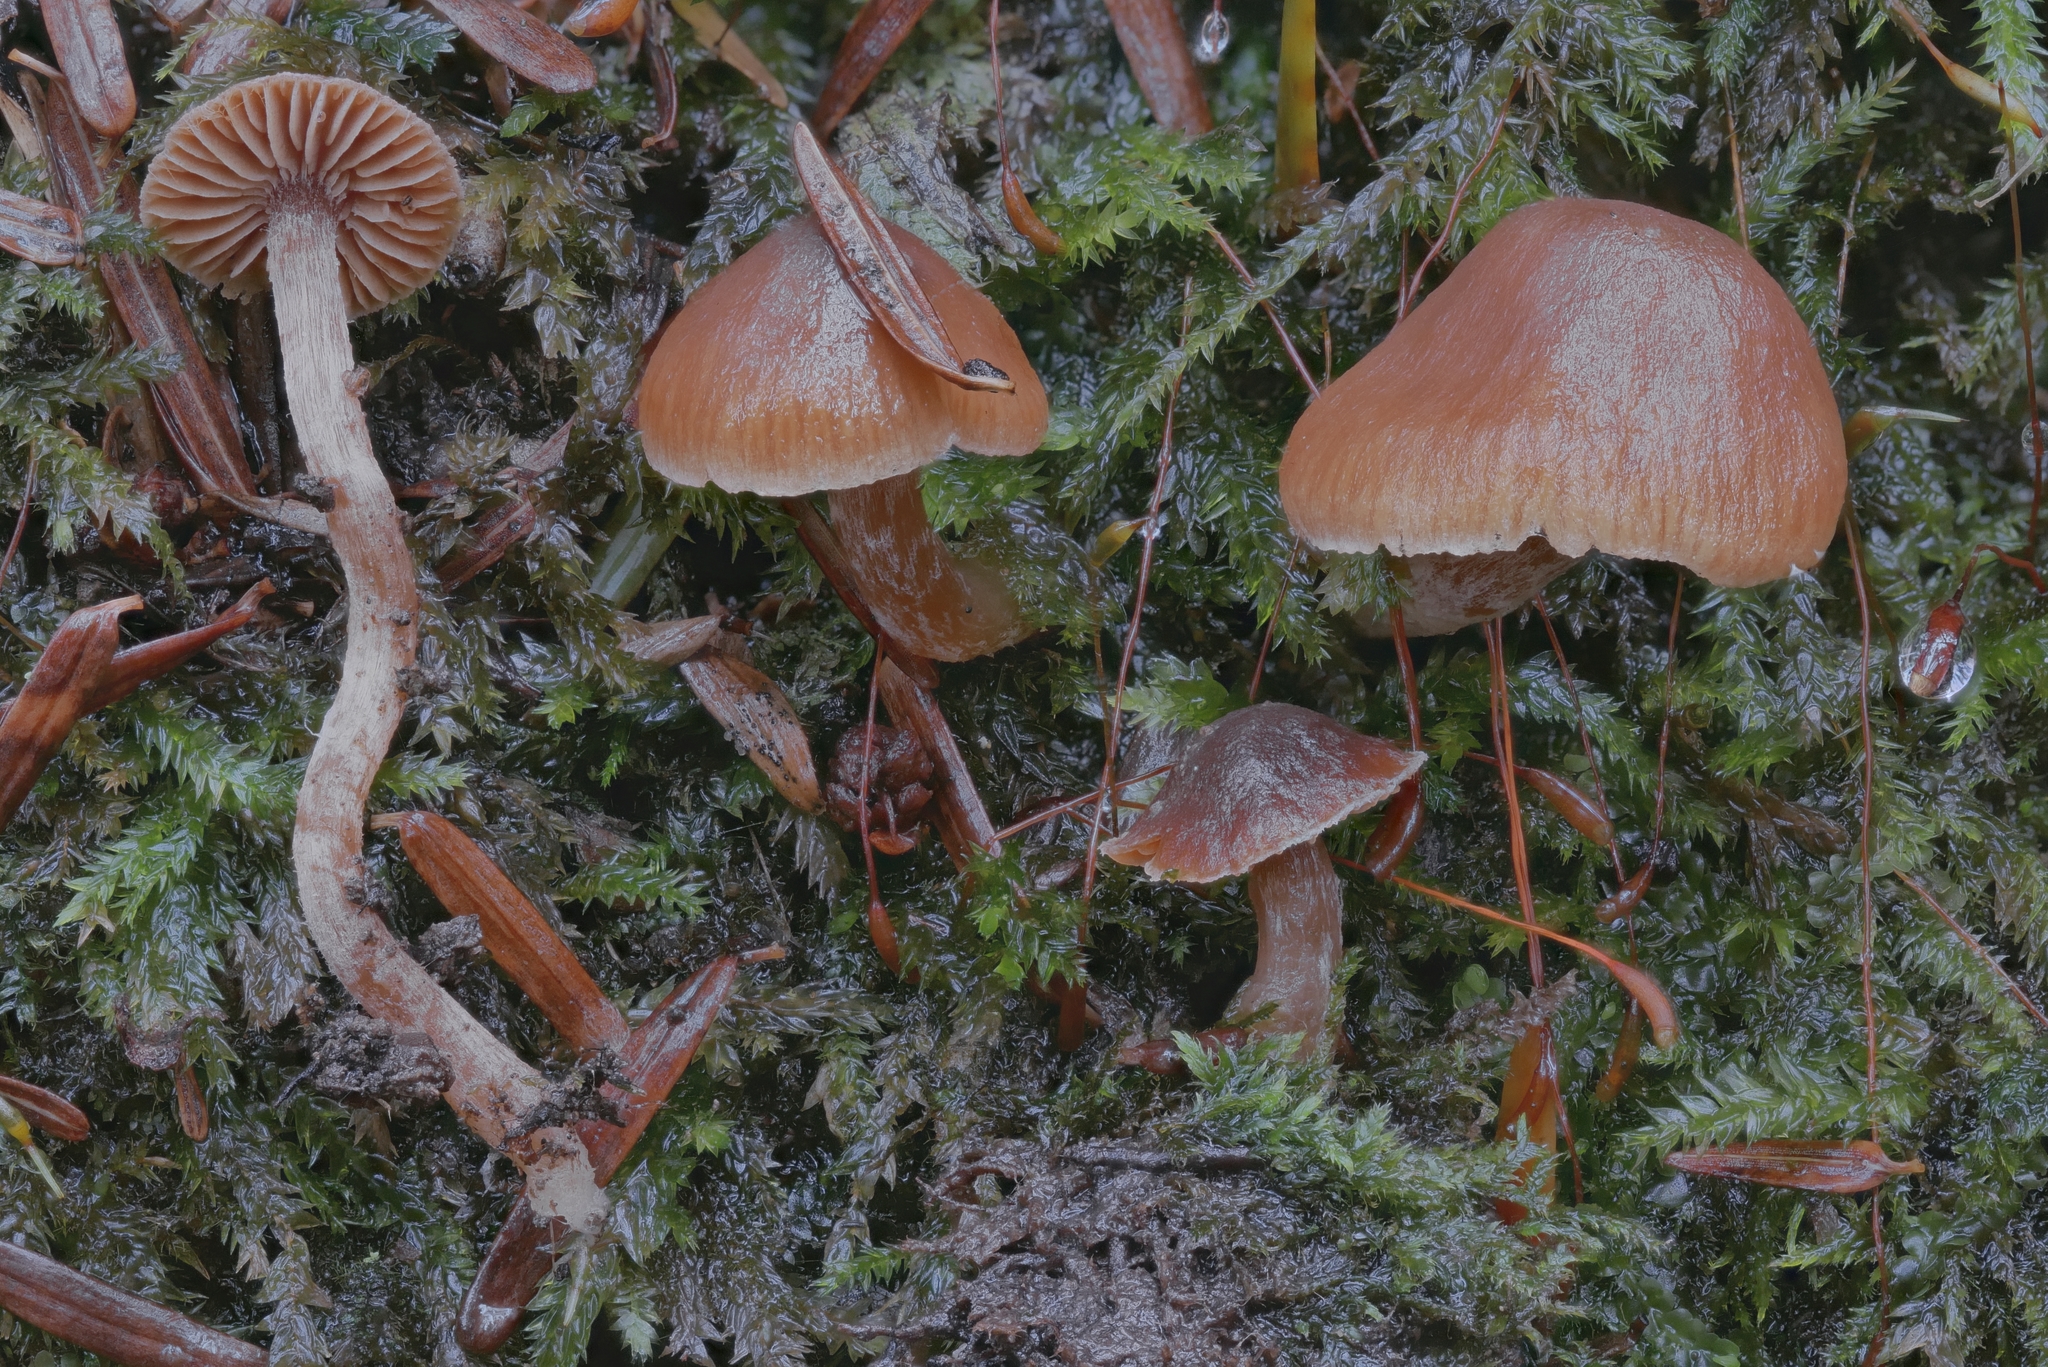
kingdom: Fungi
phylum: Basidiomycota
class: Agaricomycetes
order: Agaricales
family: Cortinariaceae
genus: Cortinarius
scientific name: Cortinarius obtusorum
